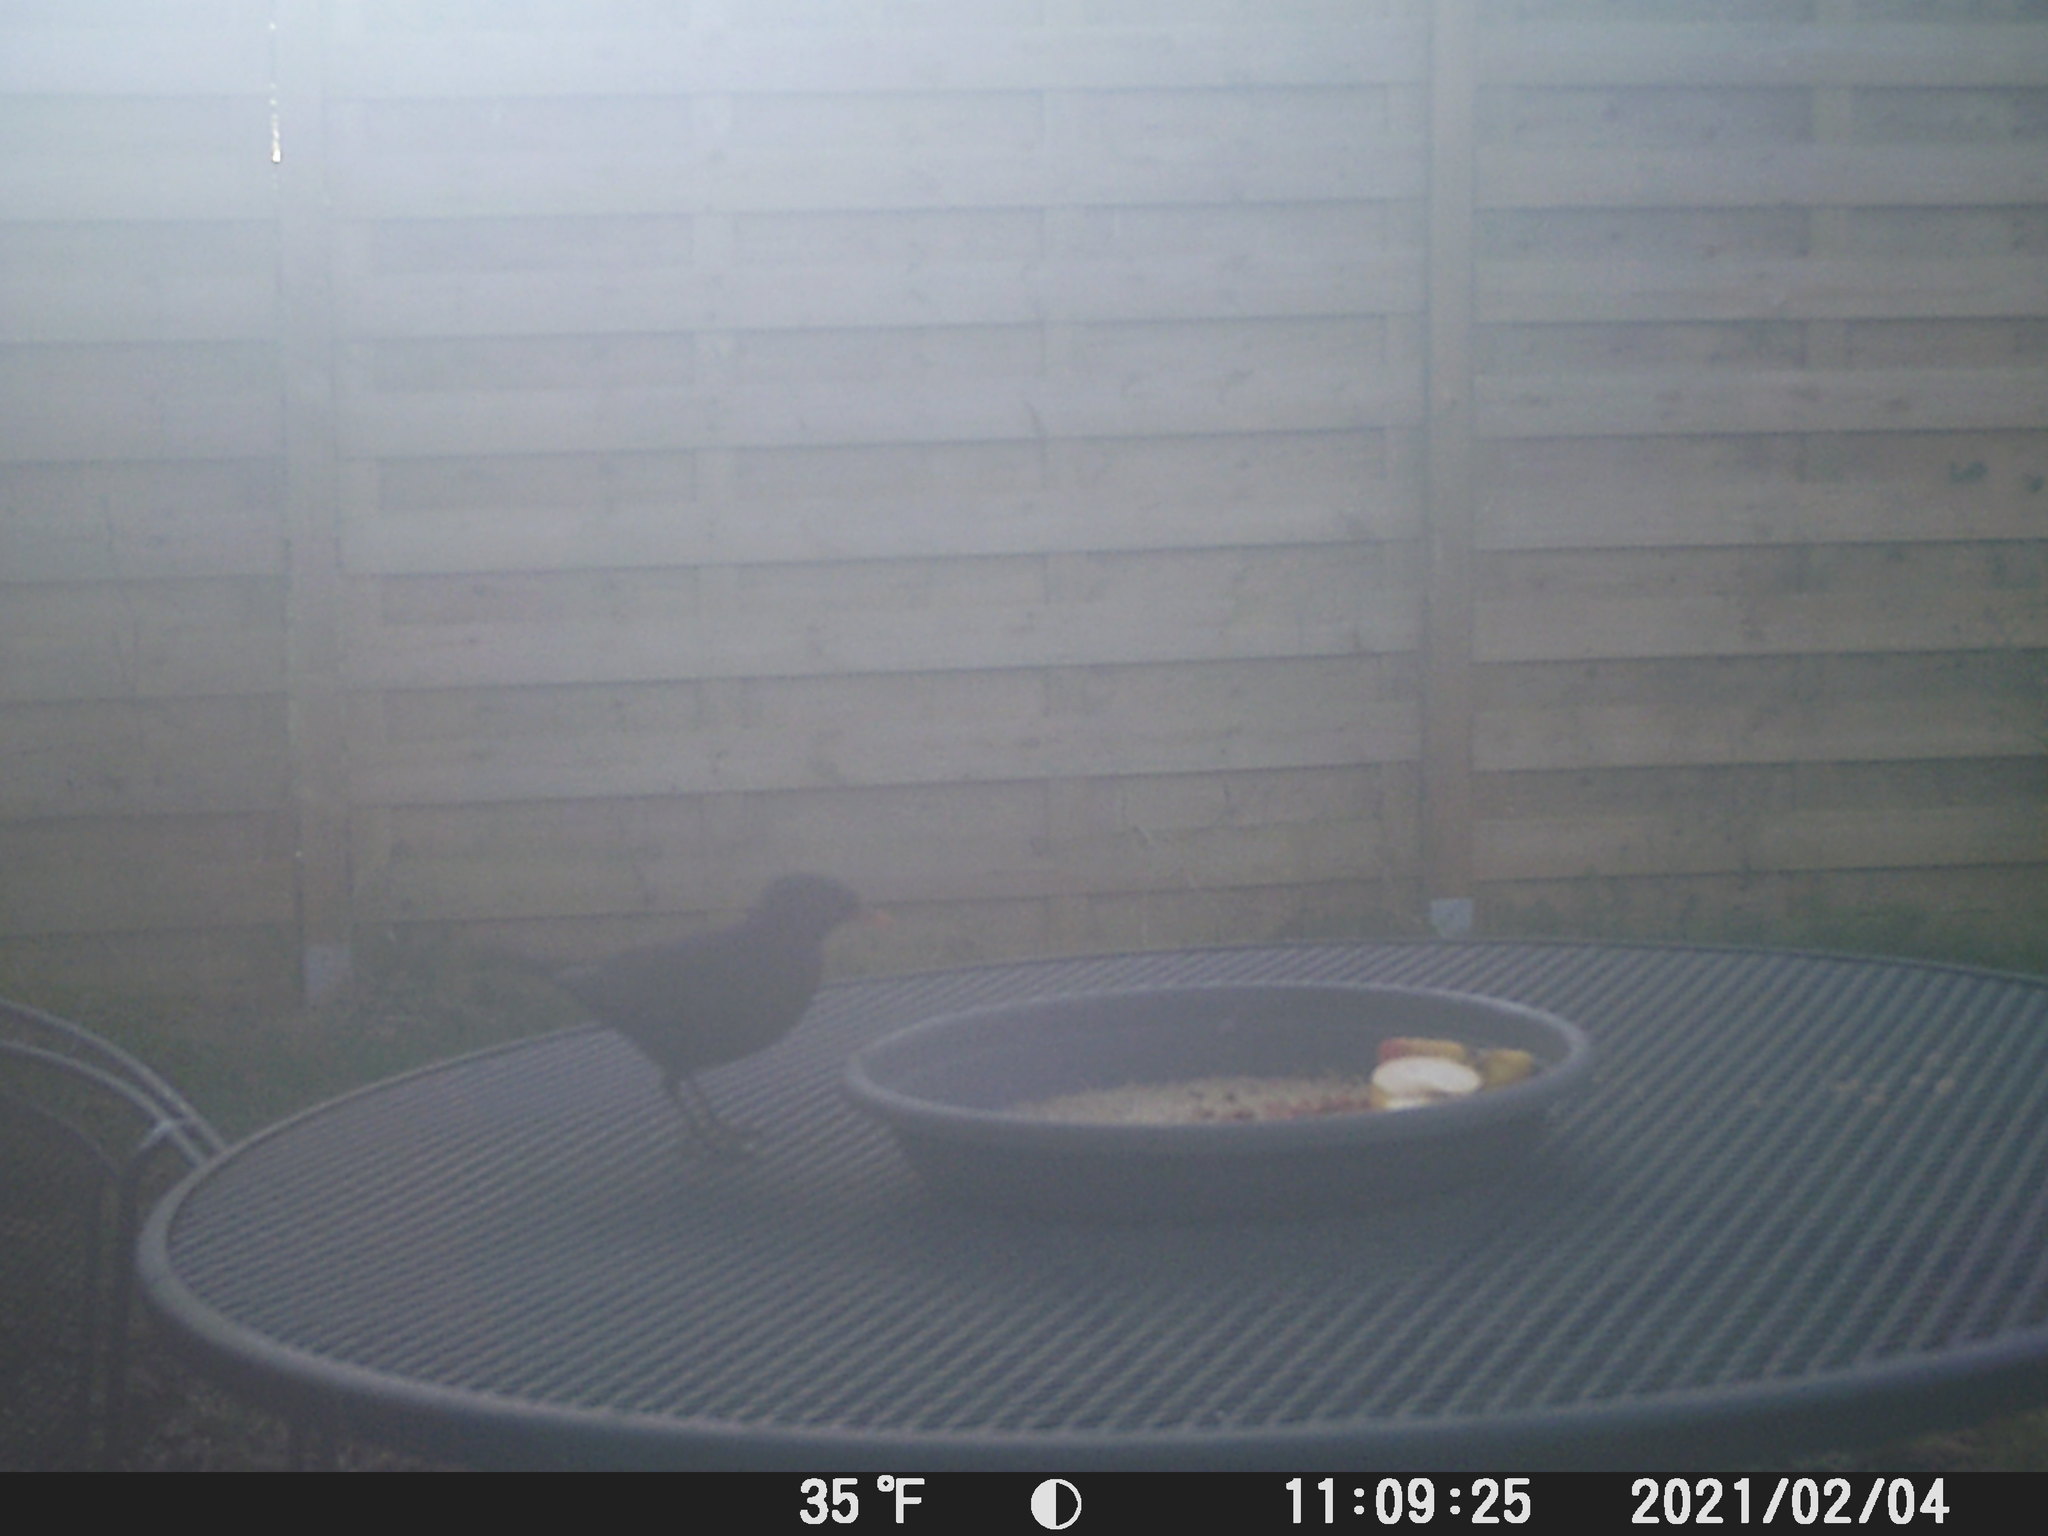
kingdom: Animalia
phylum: Chordata
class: Aves
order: Passeriformes
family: Turdidae
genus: Turdus
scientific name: Turdus merula
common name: Common blackbird
